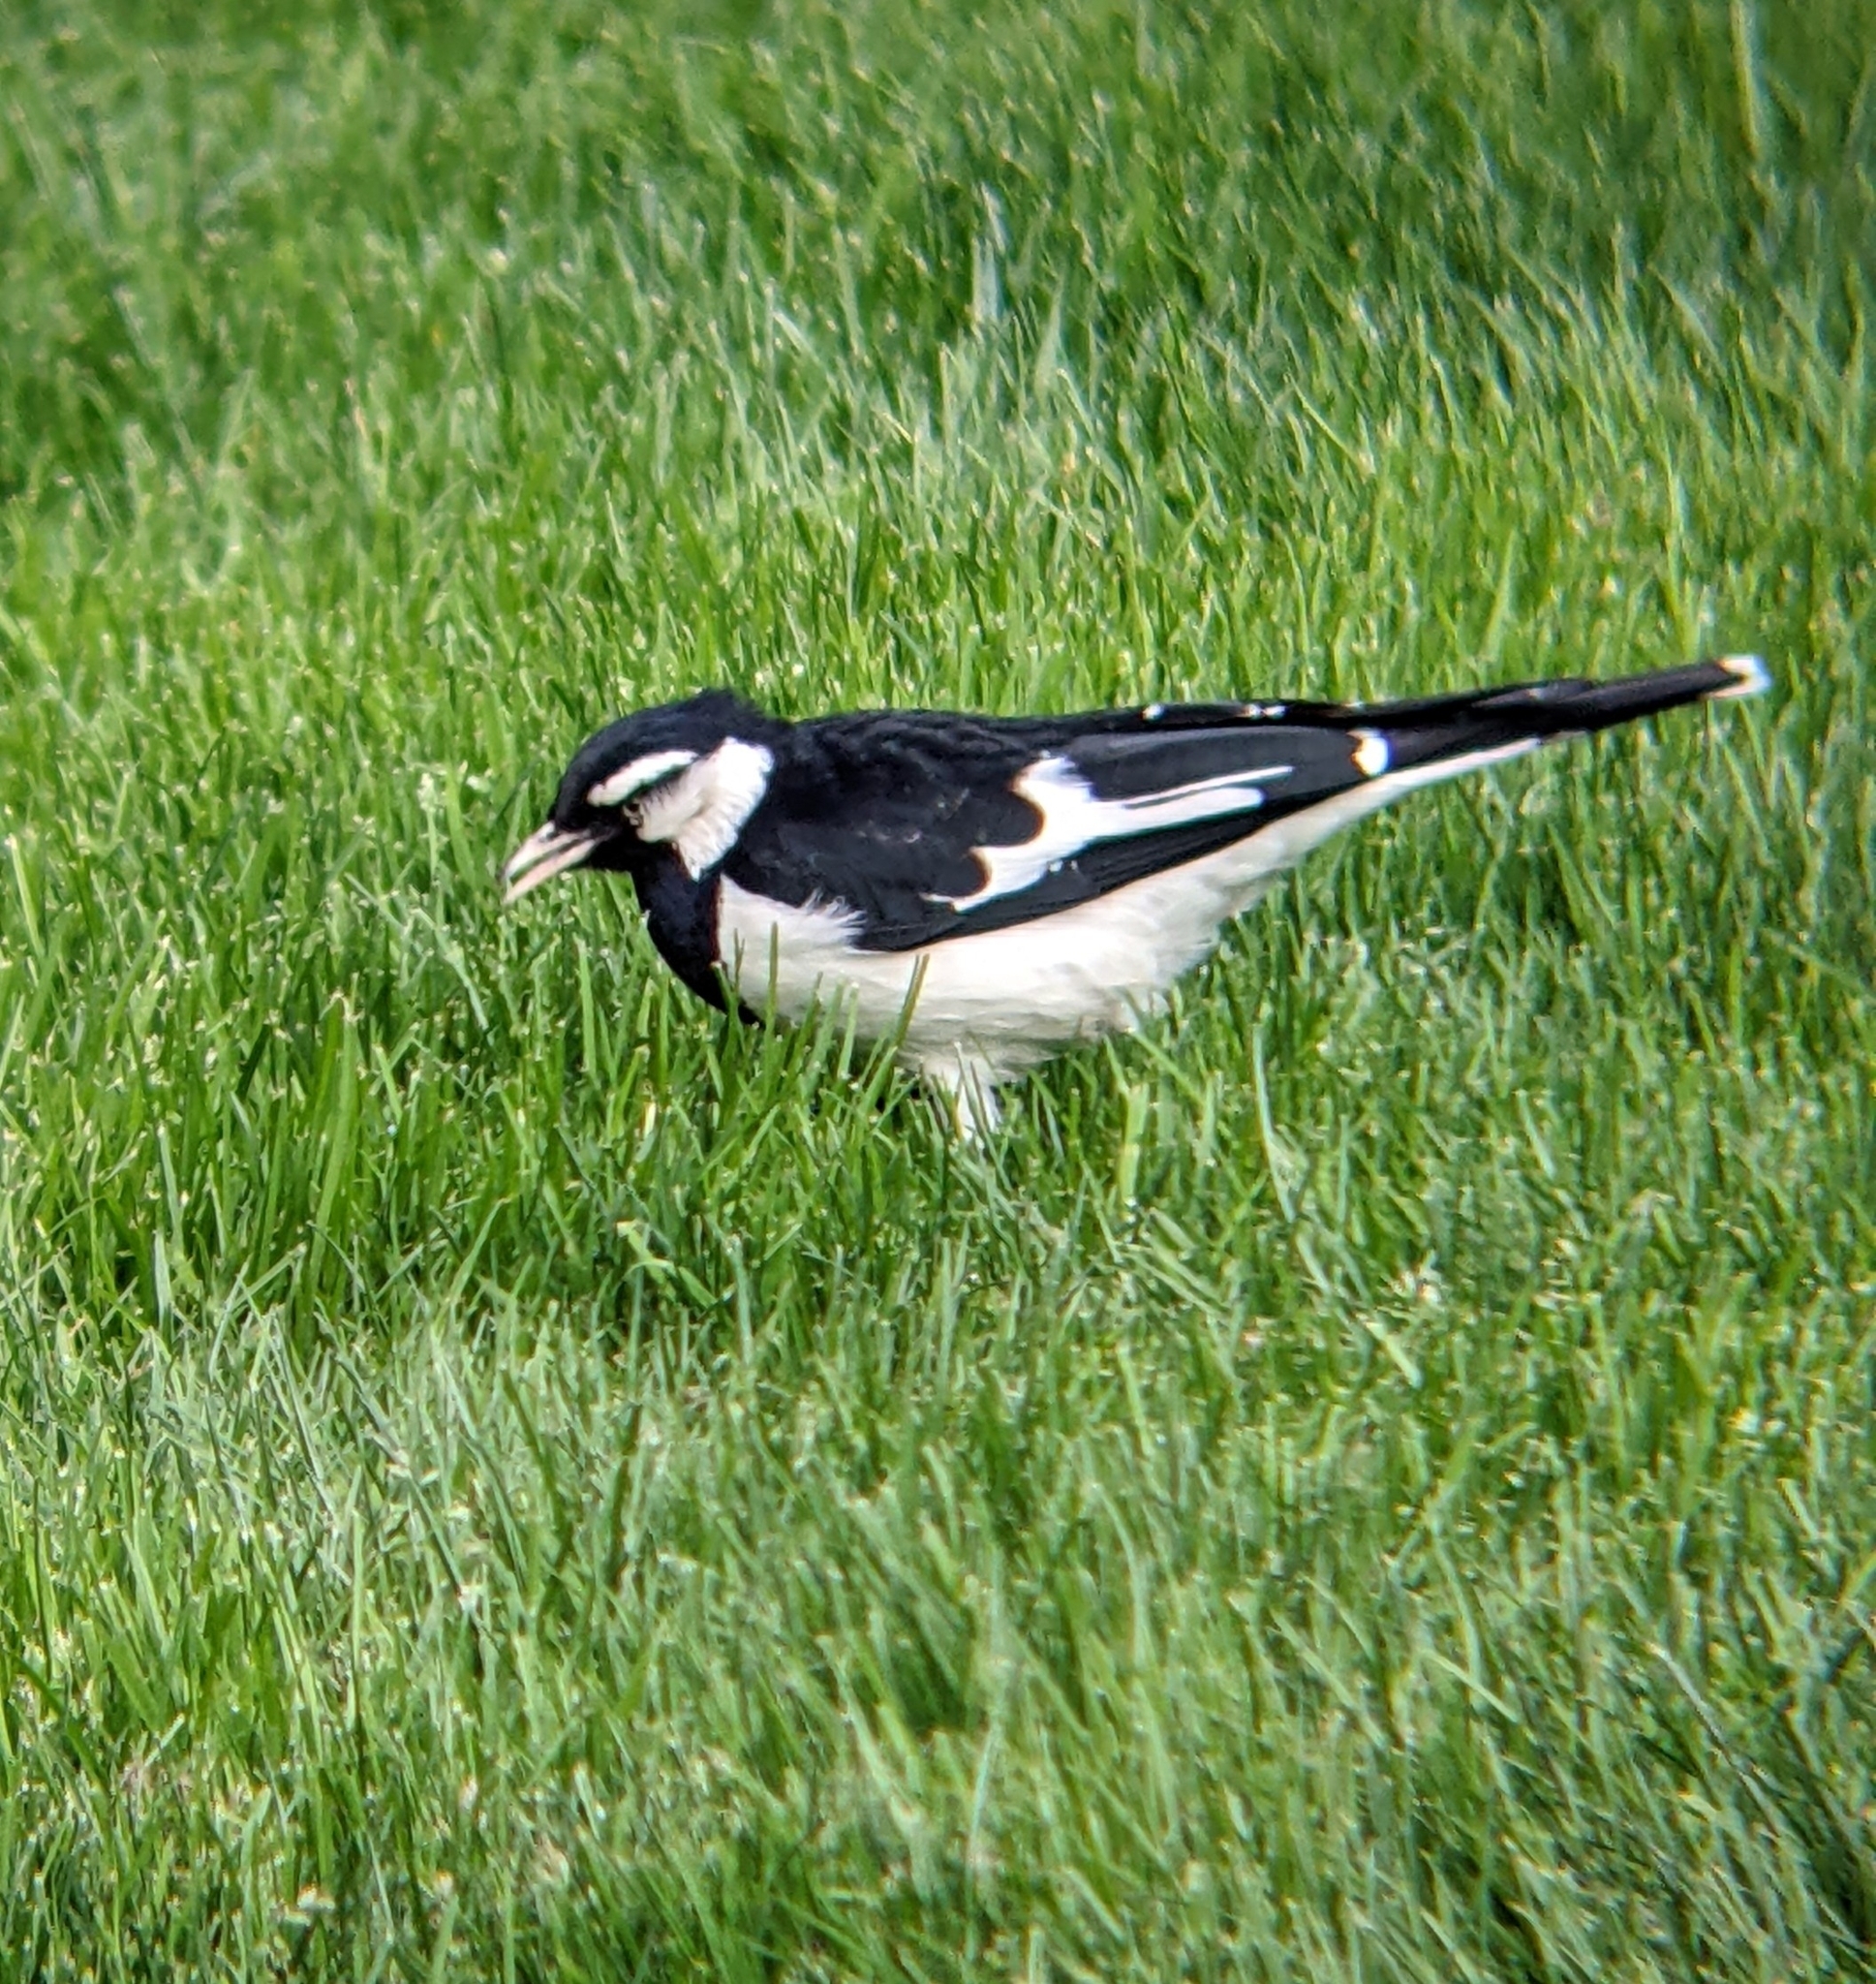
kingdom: Animalia
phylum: Chordata
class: Aves
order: Passeriformes
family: Monarchidae
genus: Grallina
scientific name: Grallina cyanoleuca
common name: Magpie-lark
